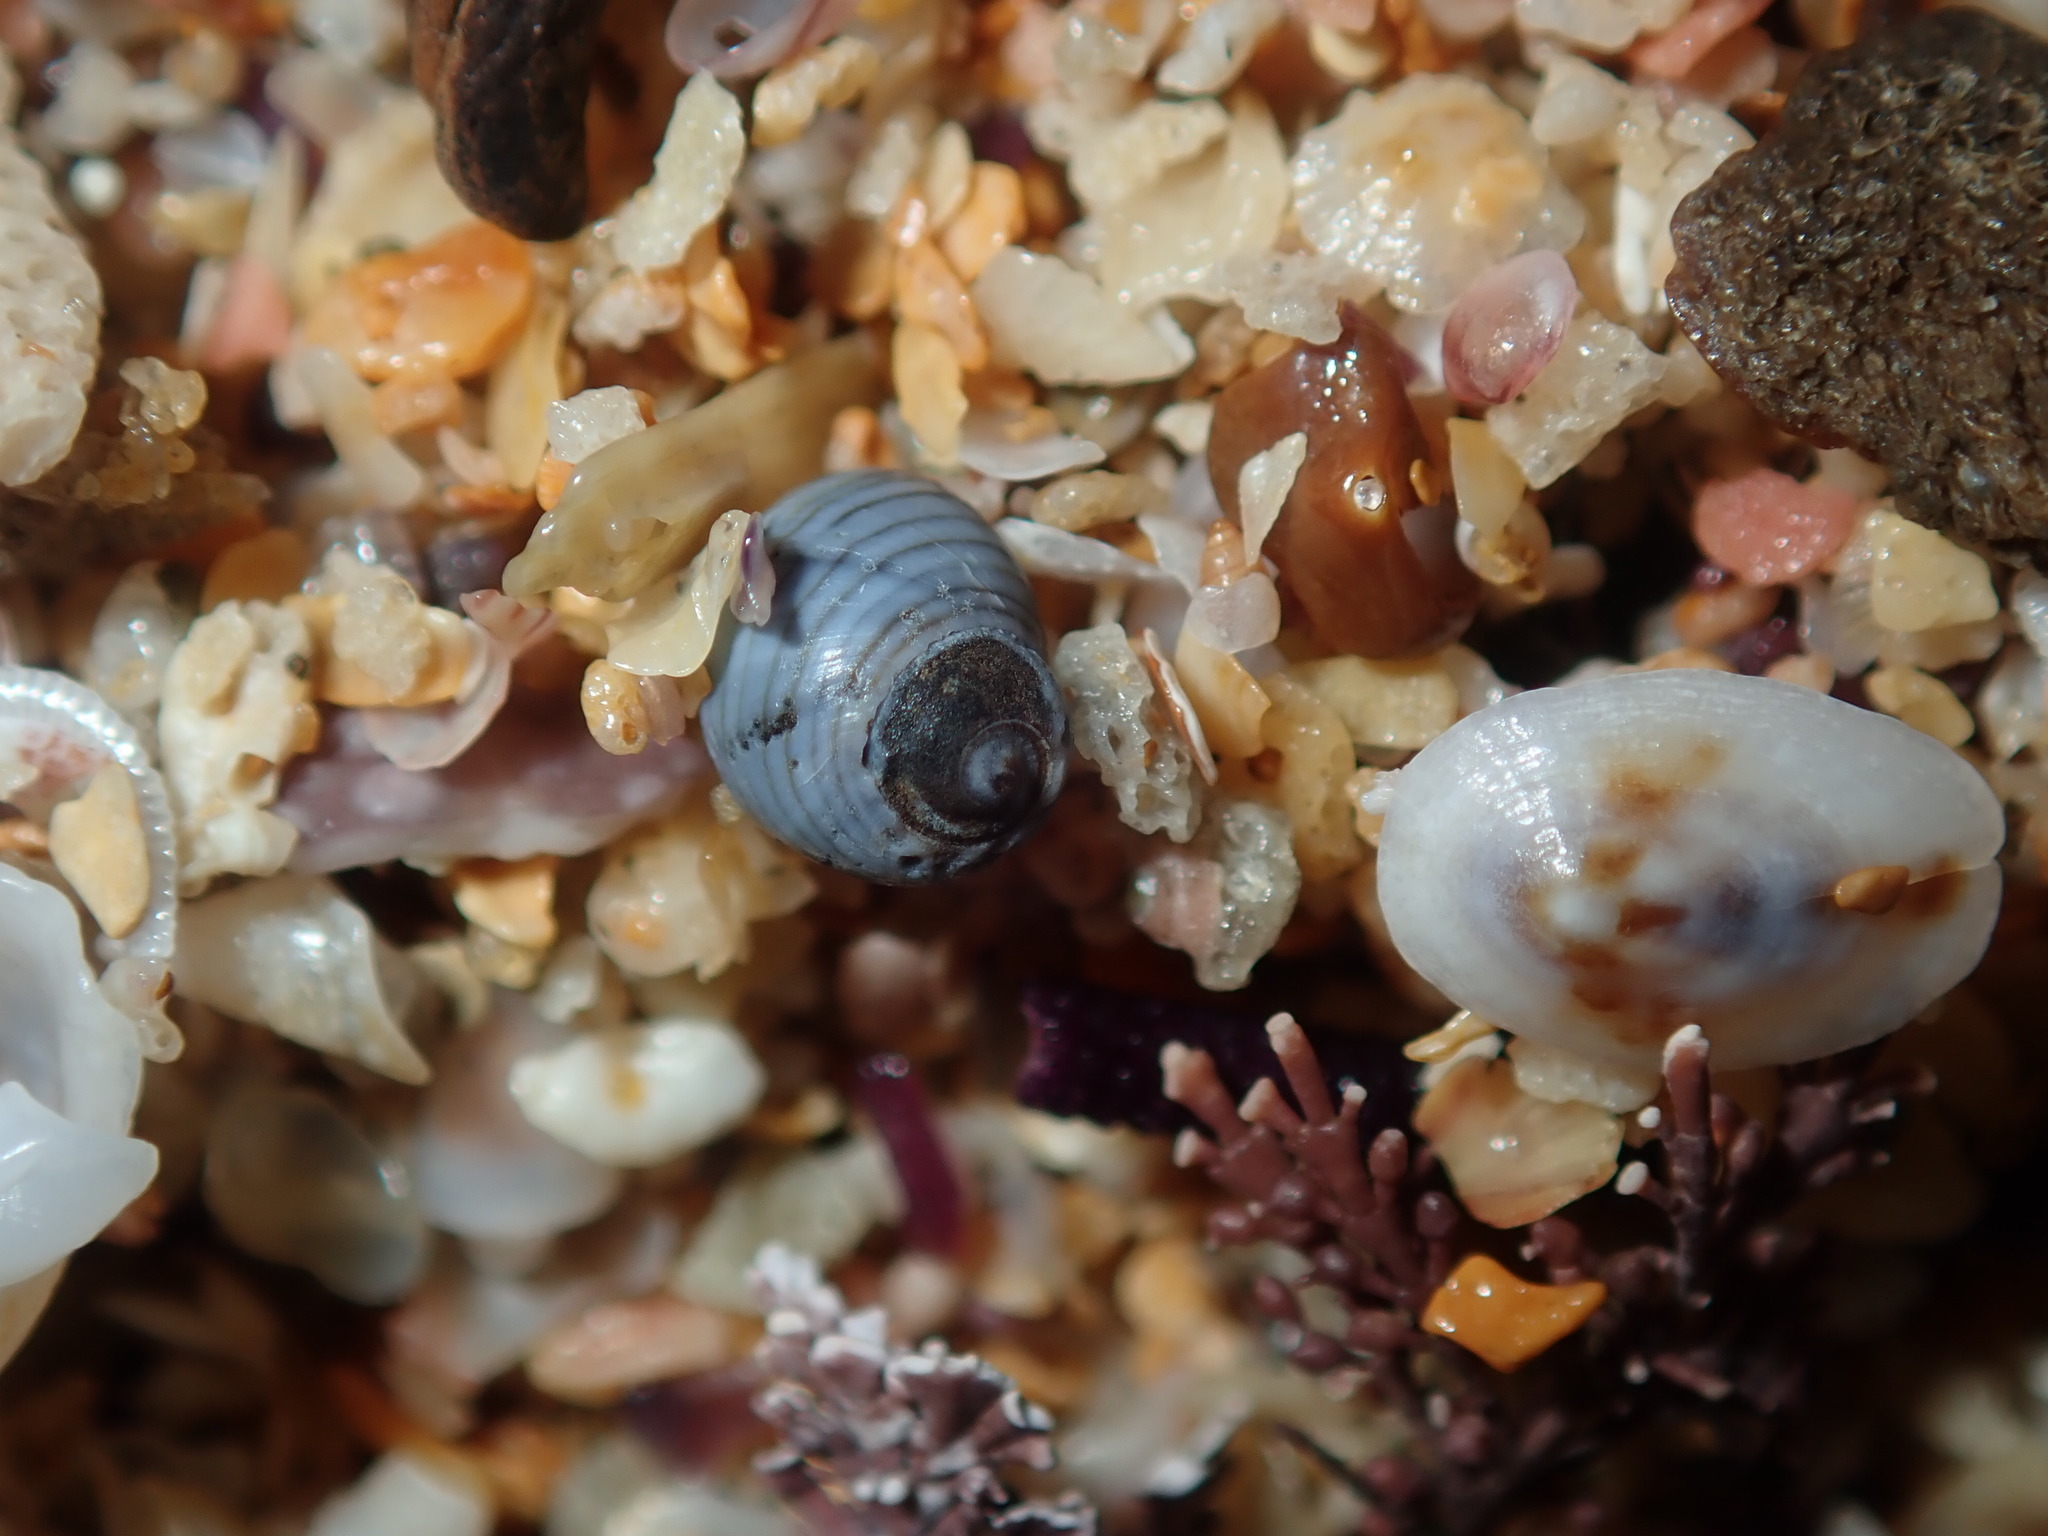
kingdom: Animalia
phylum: Mollusca
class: Gastropoda
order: Littorinimorpha
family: Littorinidae
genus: Austrolittorina
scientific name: Austrolittorina unifasciata
